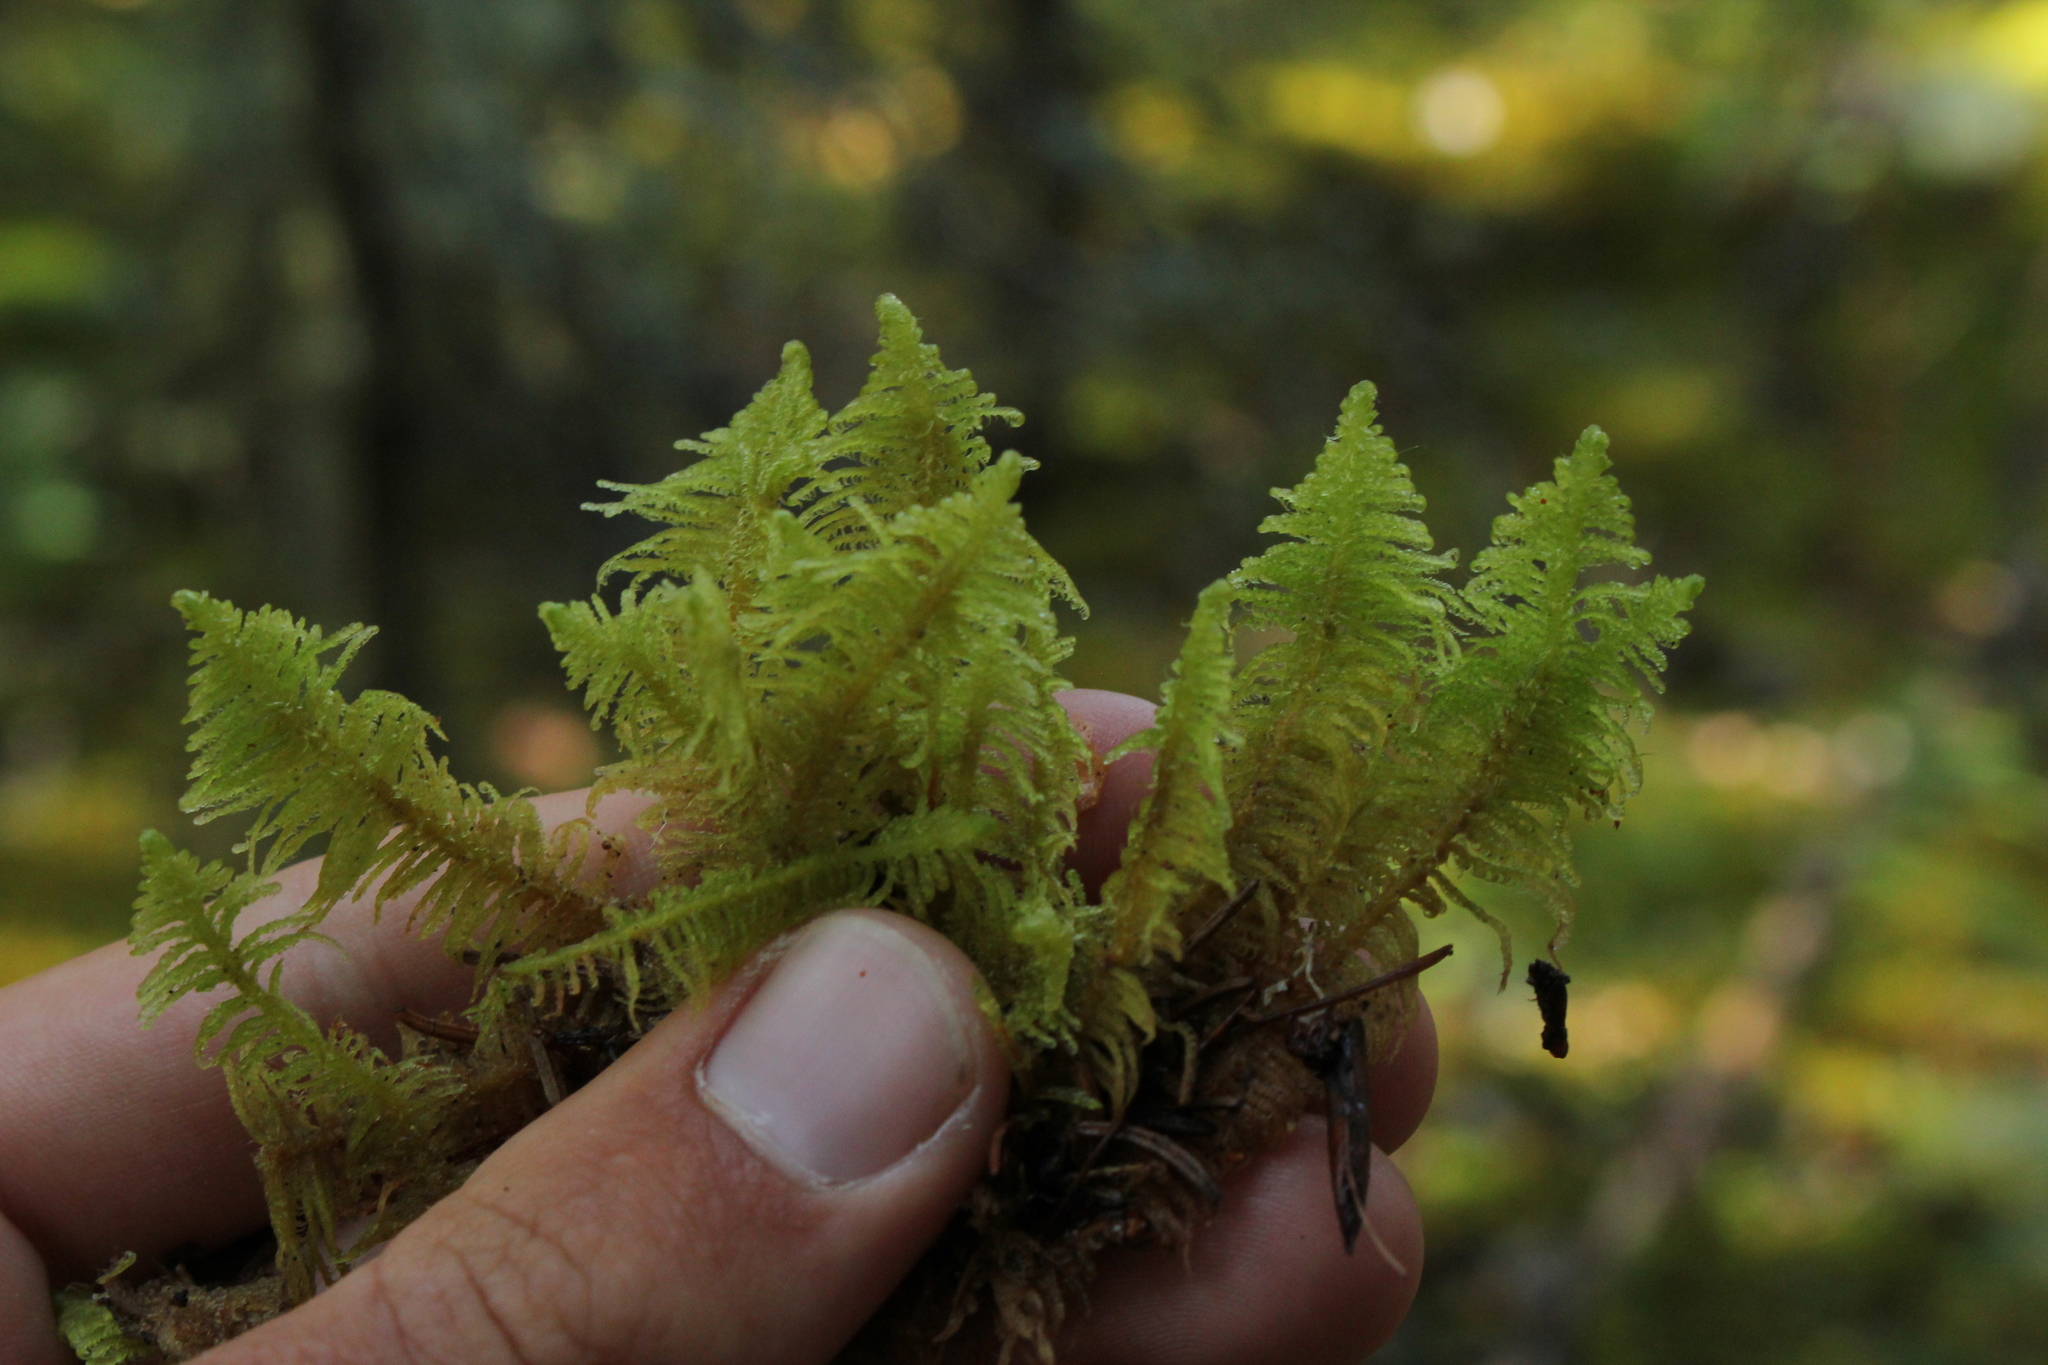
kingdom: Plantae
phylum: Bryophyta
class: Bryopsida
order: Hypnales
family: Pylaisiaceae
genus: Ptilium
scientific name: Ptilium crista-castrensis
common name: Knight's plume moss
